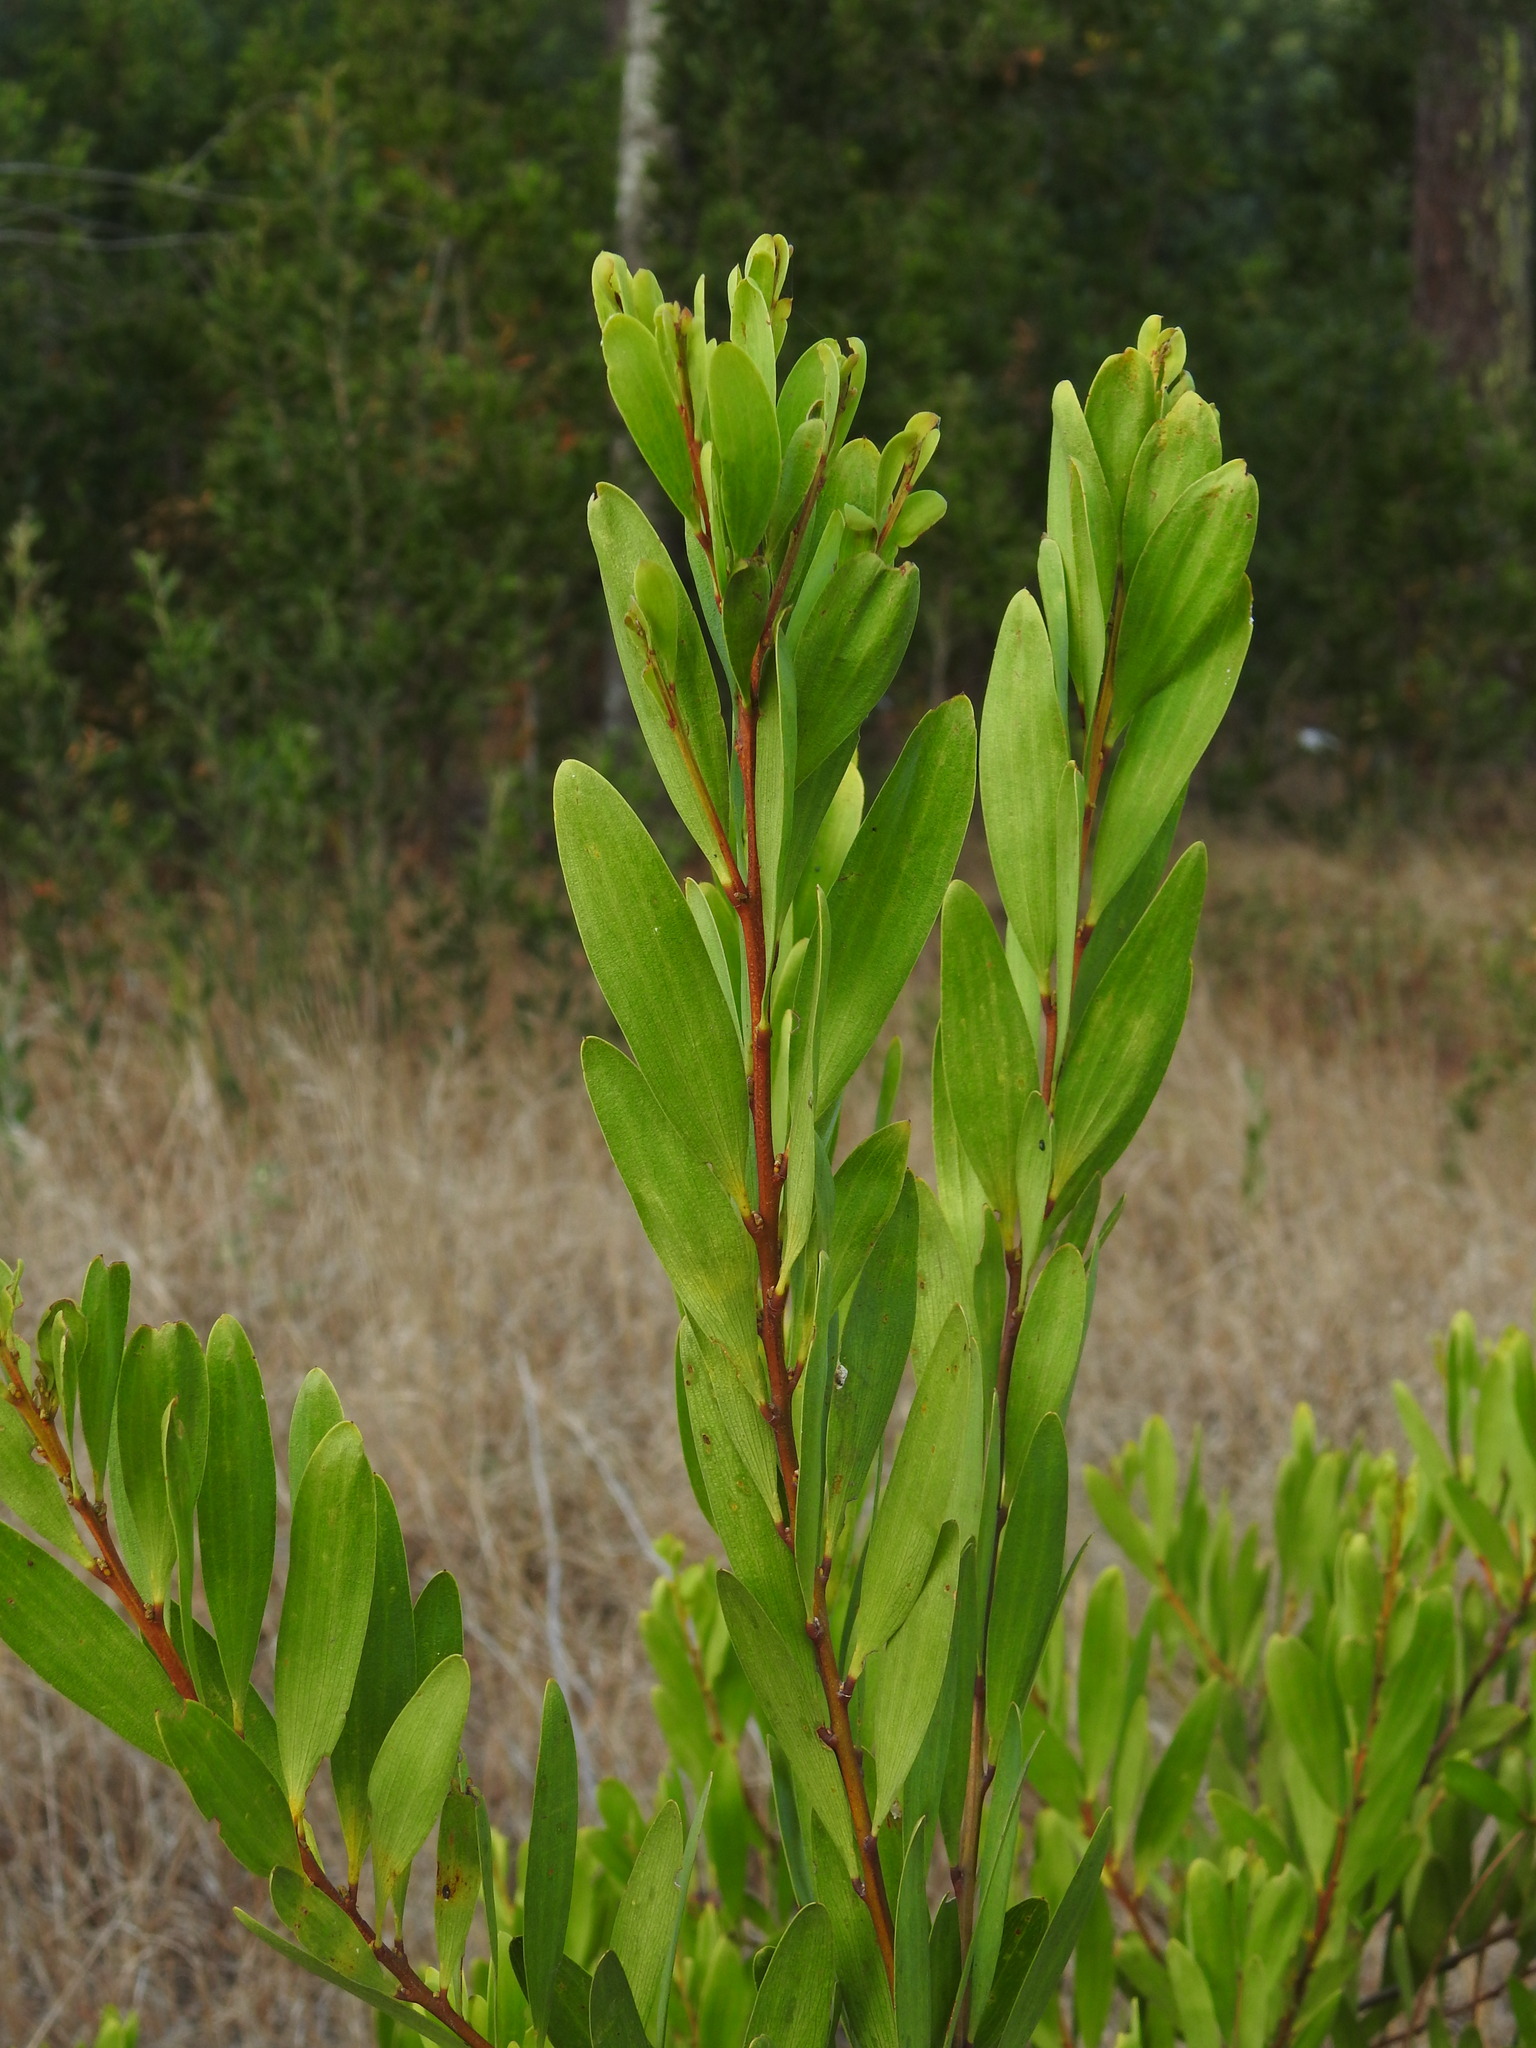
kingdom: Plantae
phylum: Tracheophyta
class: Magnoliopsida
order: Fabales
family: Fabaceae
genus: Acacia
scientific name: Acacia longifolia
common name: Sydney golden wattle
